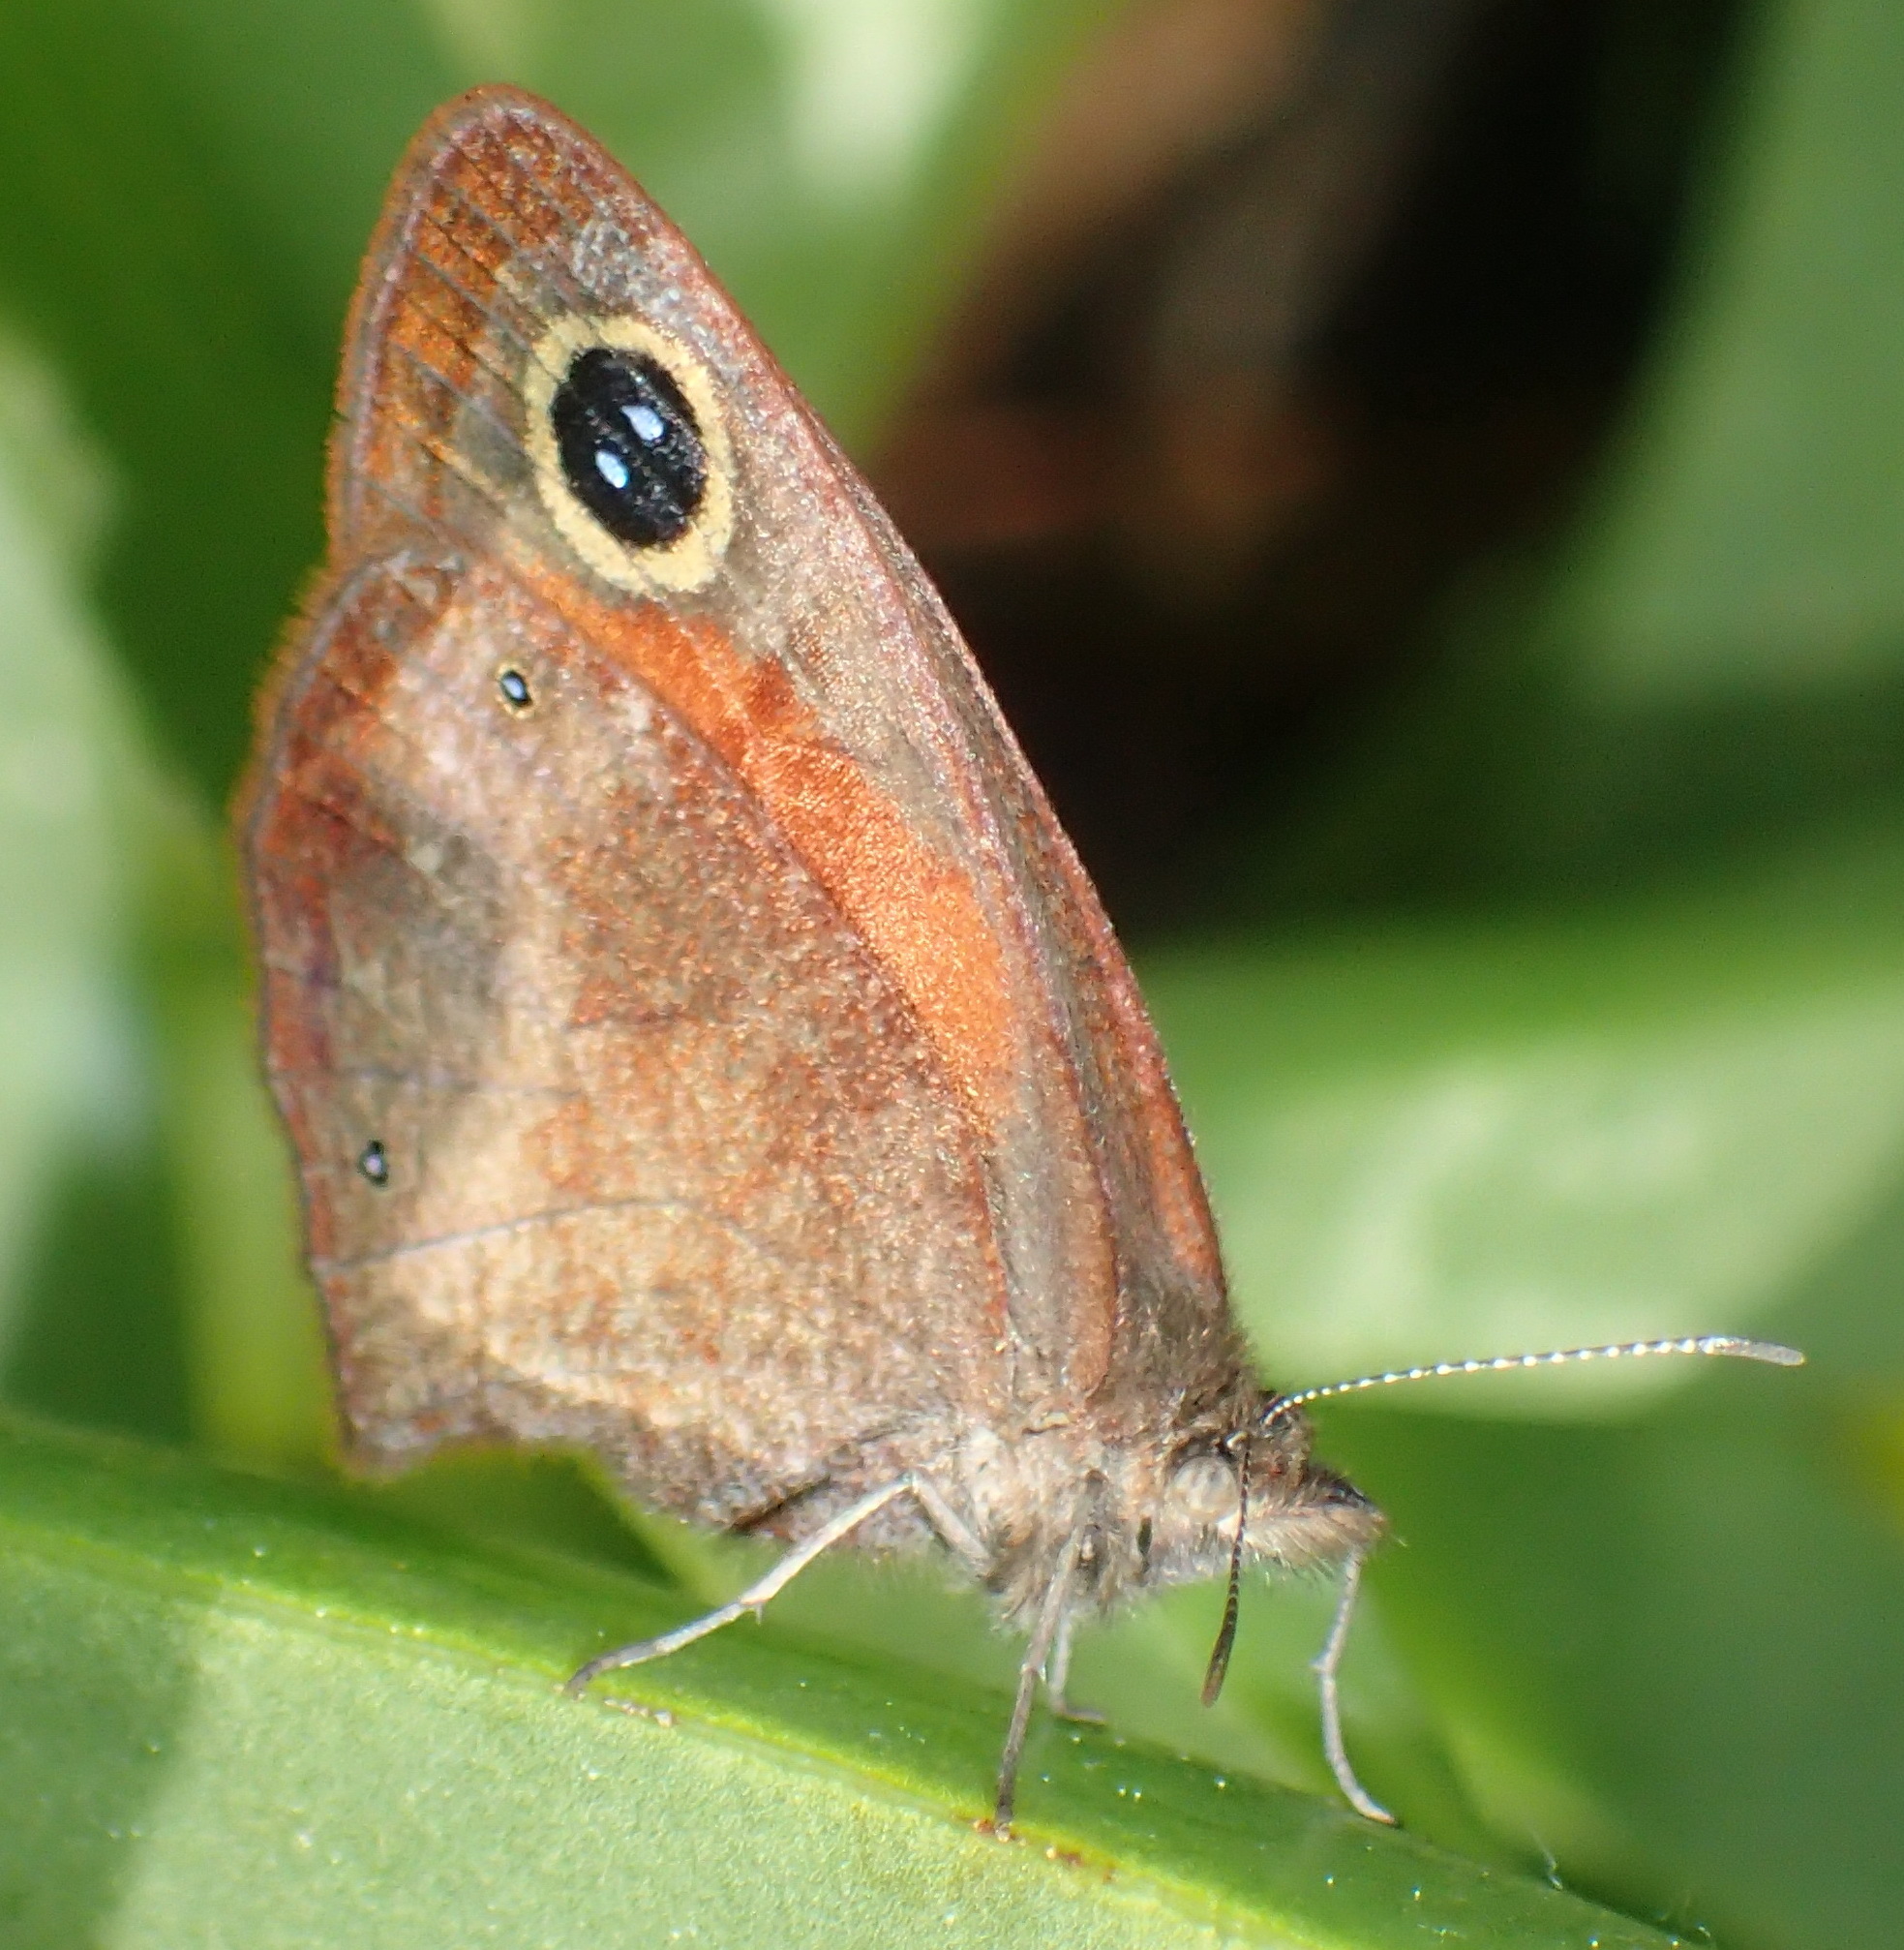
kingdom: Animalia
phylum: Arthropoda
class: Insecta
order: Lepidoptera
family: Nymphalidae
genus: Cassionympha
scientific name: Cassionympha cassius
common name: Rainforest brown
